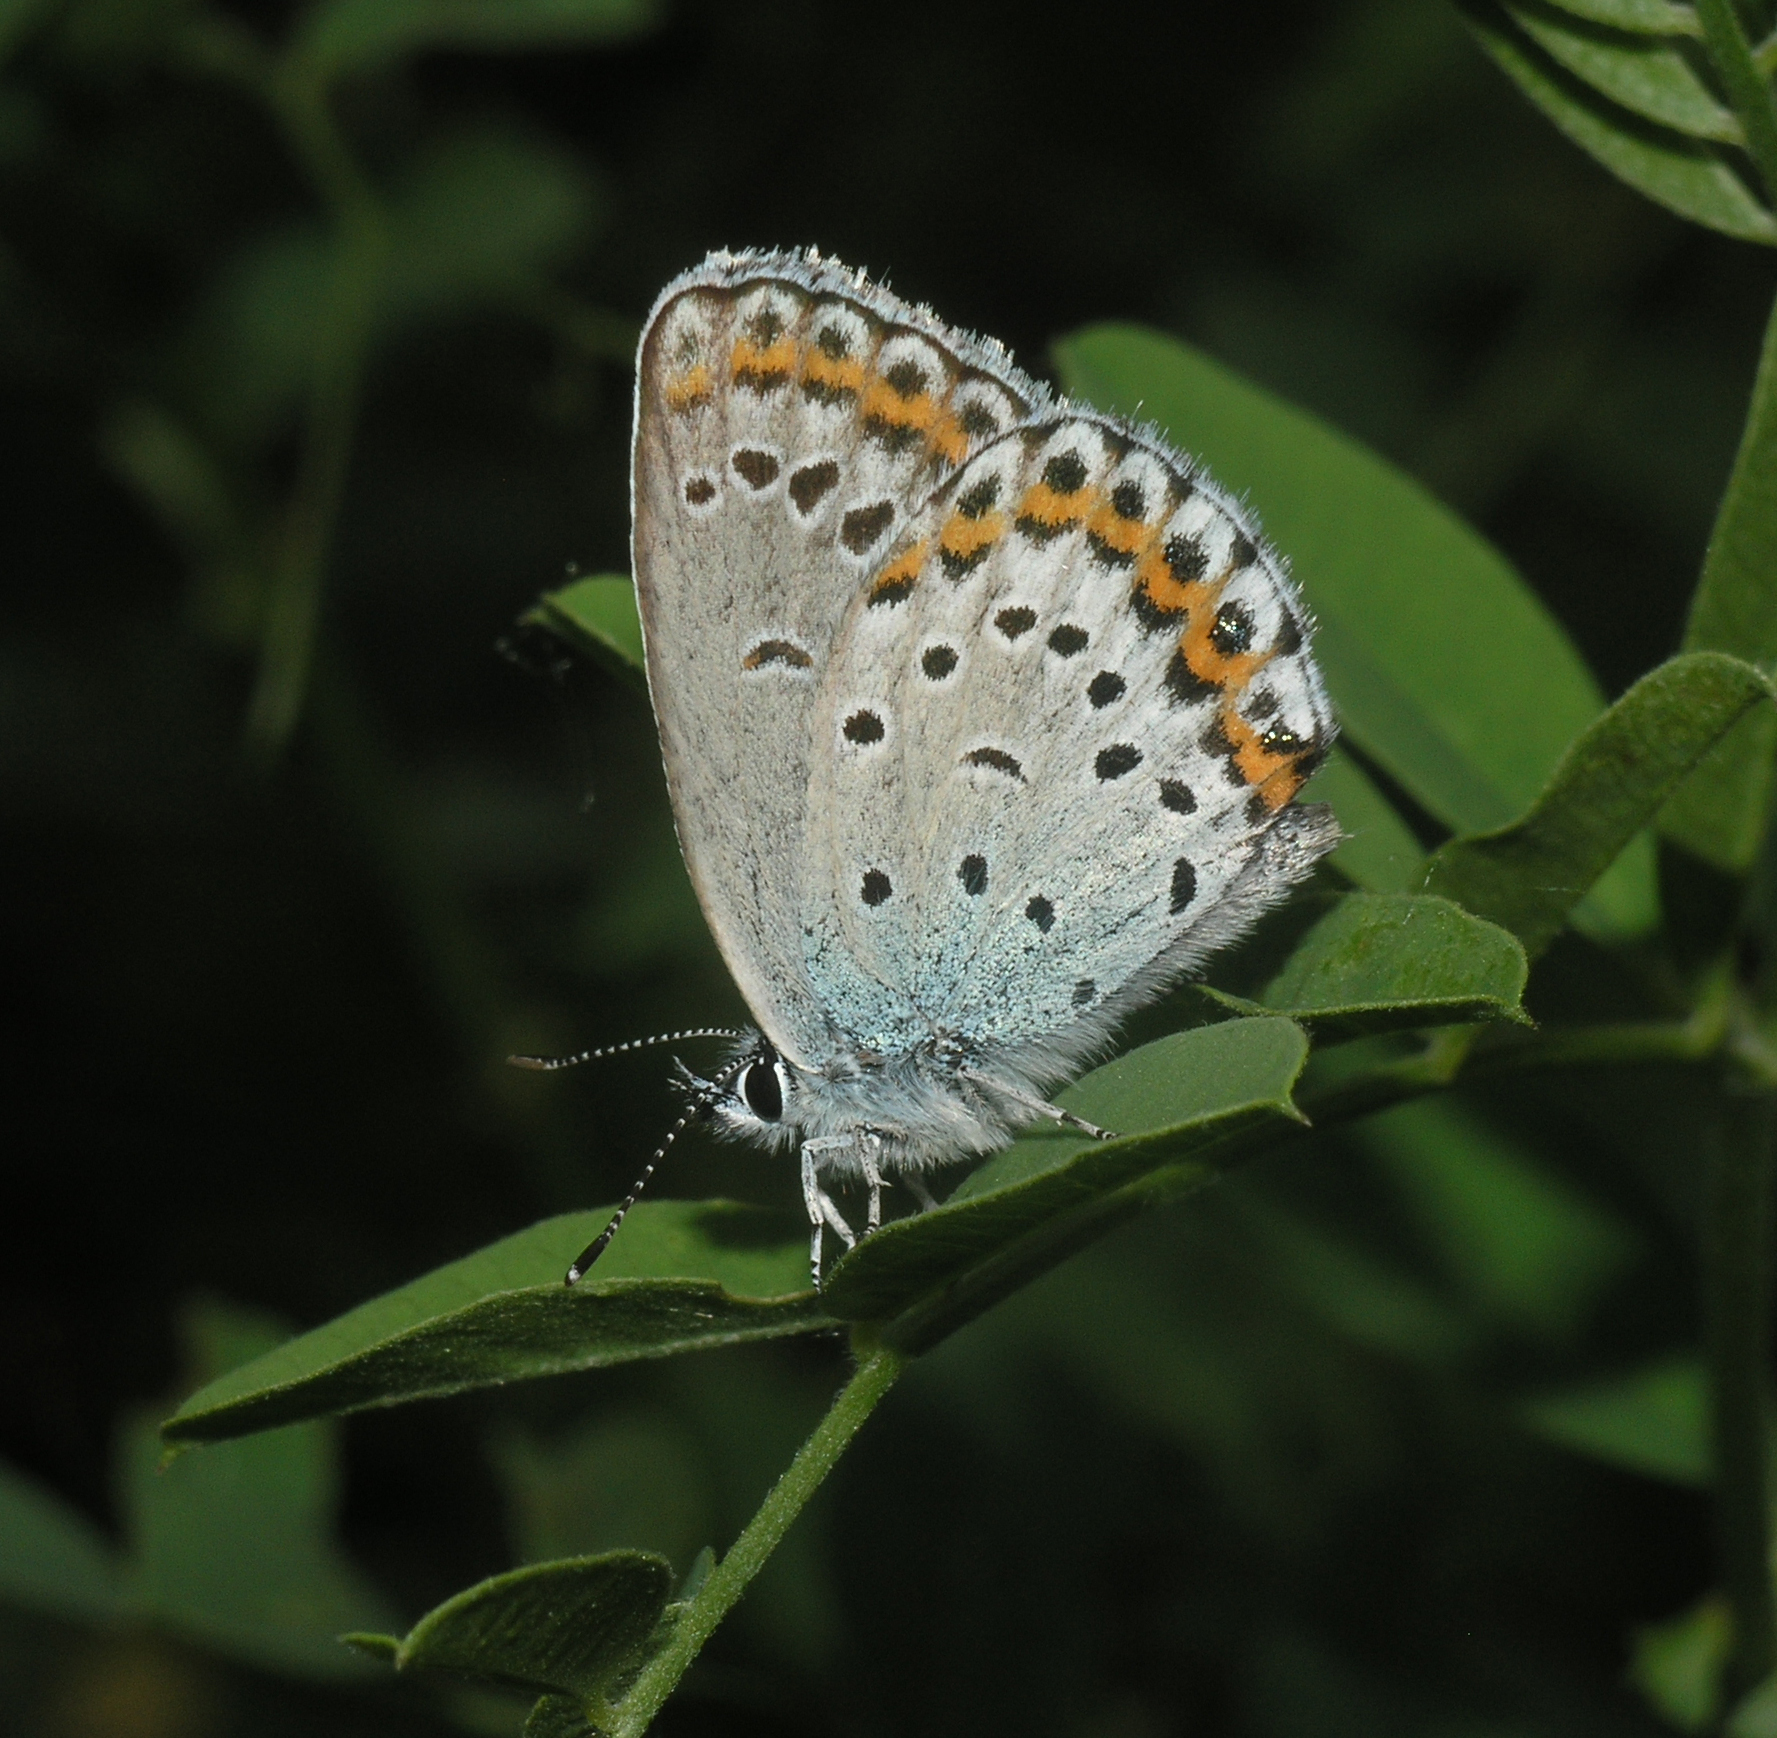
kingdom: Animalia
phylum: Arthropoda
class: Insecta
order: Lepidoptera
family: Lycaenidae
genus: Plebejus
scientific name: Plebejus subsolanus
